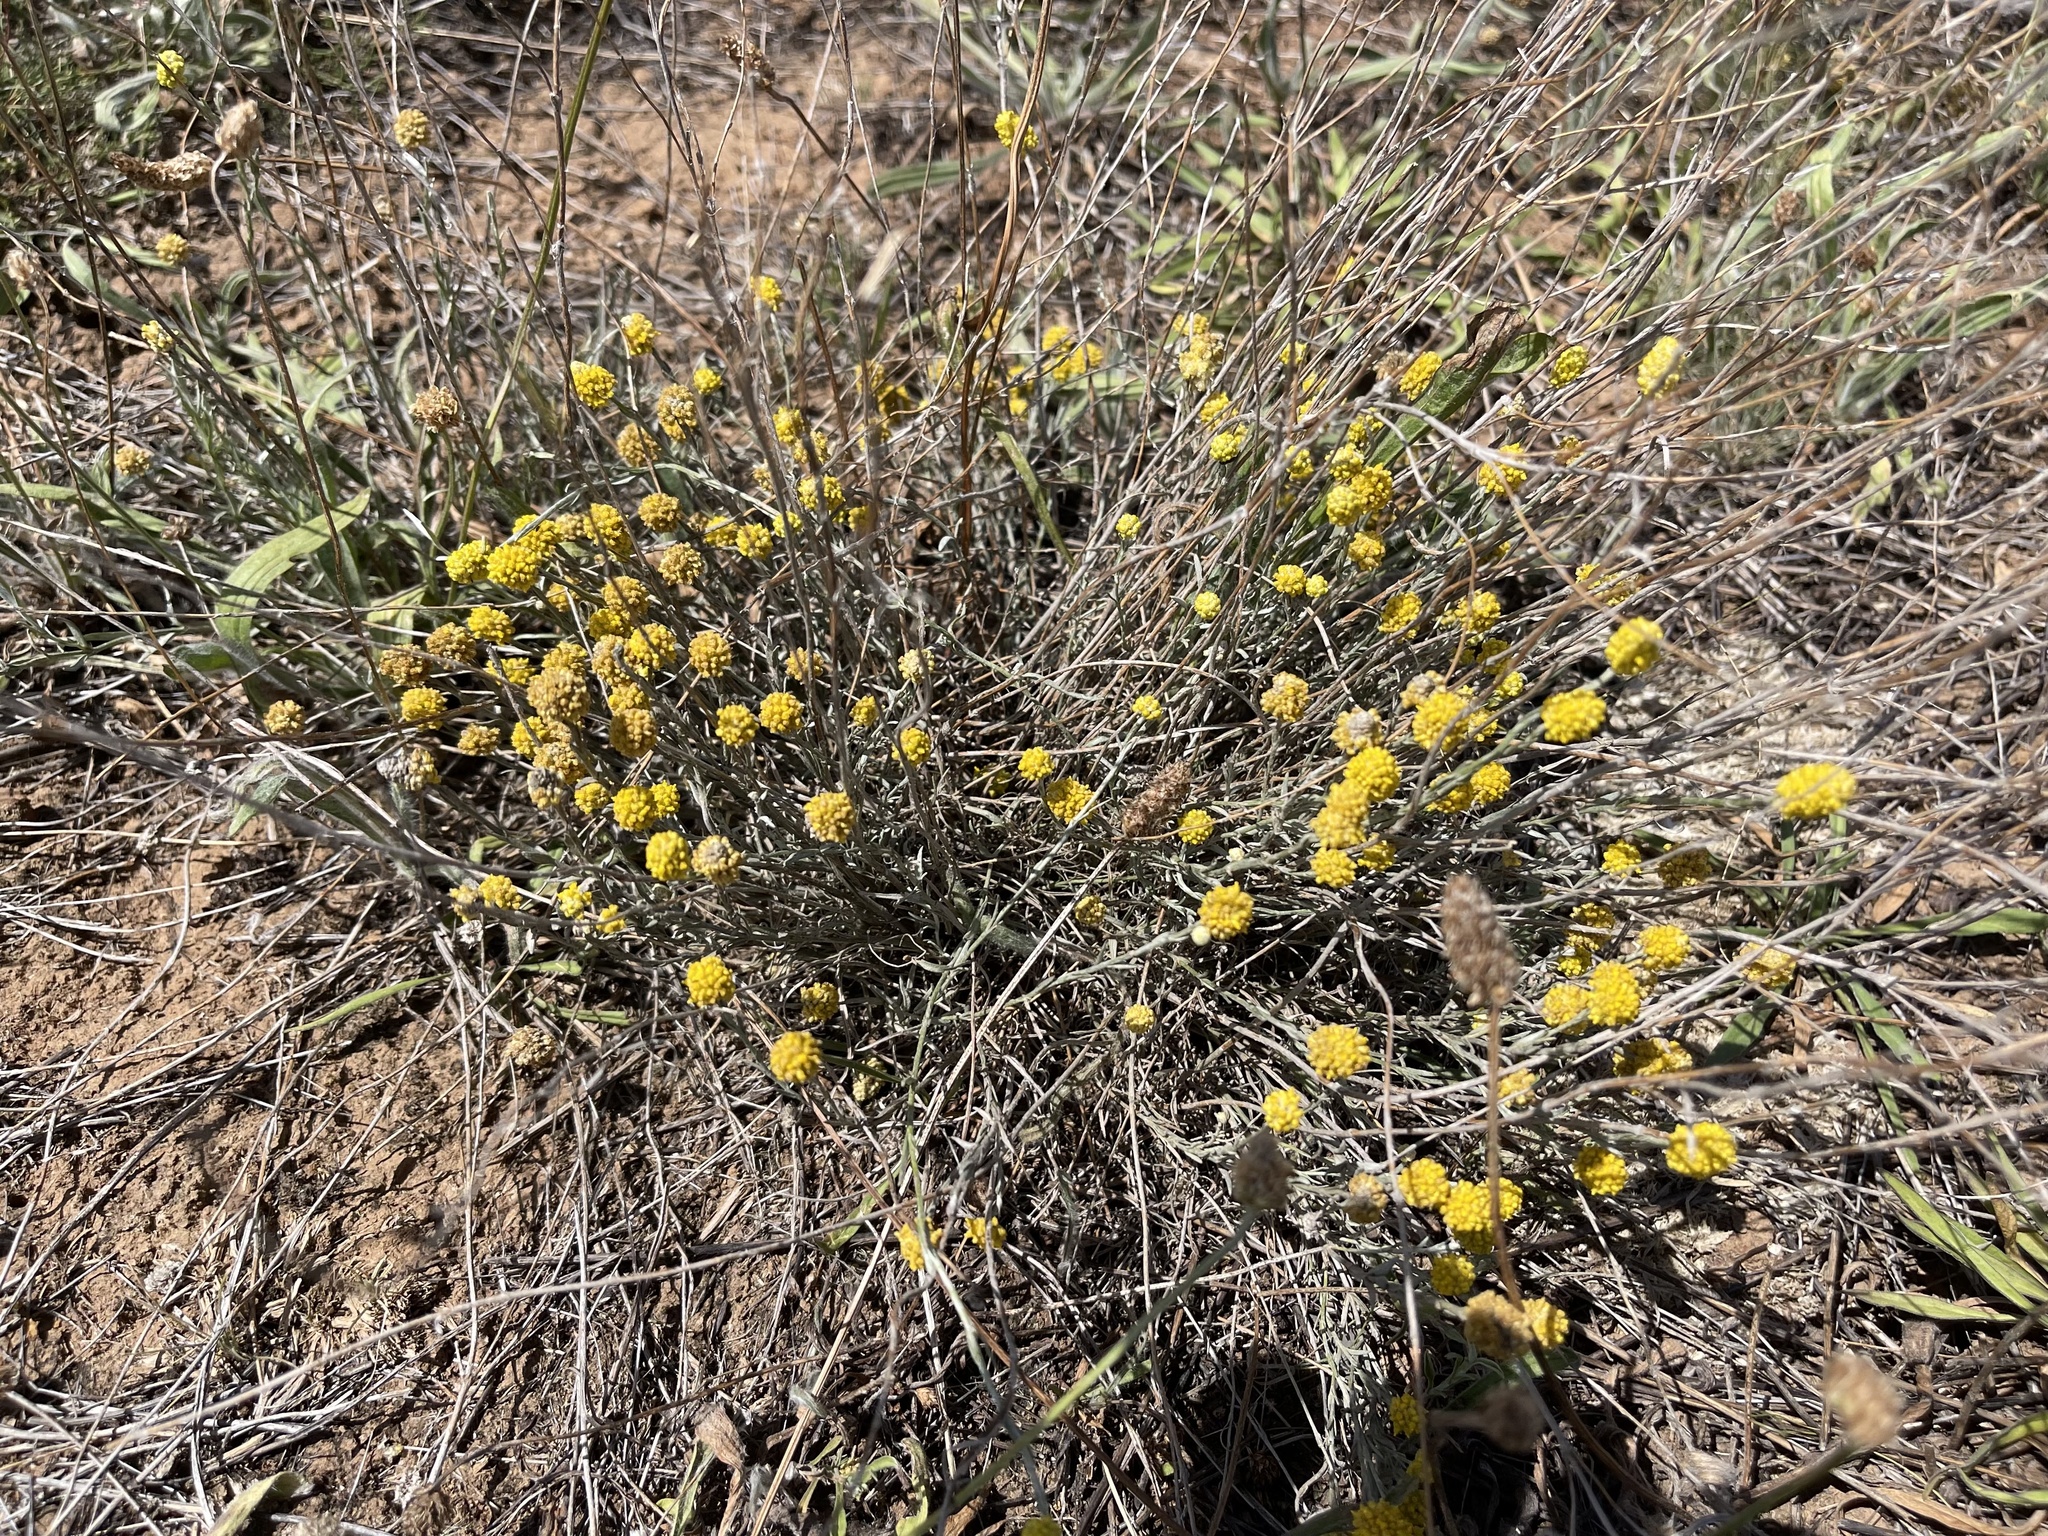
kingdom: Plantae
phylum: Tracheophyta
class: Magnoliopsida
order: Asterales
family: Asteraceae
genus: Calocephalus
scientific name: Calocephalus citreus
